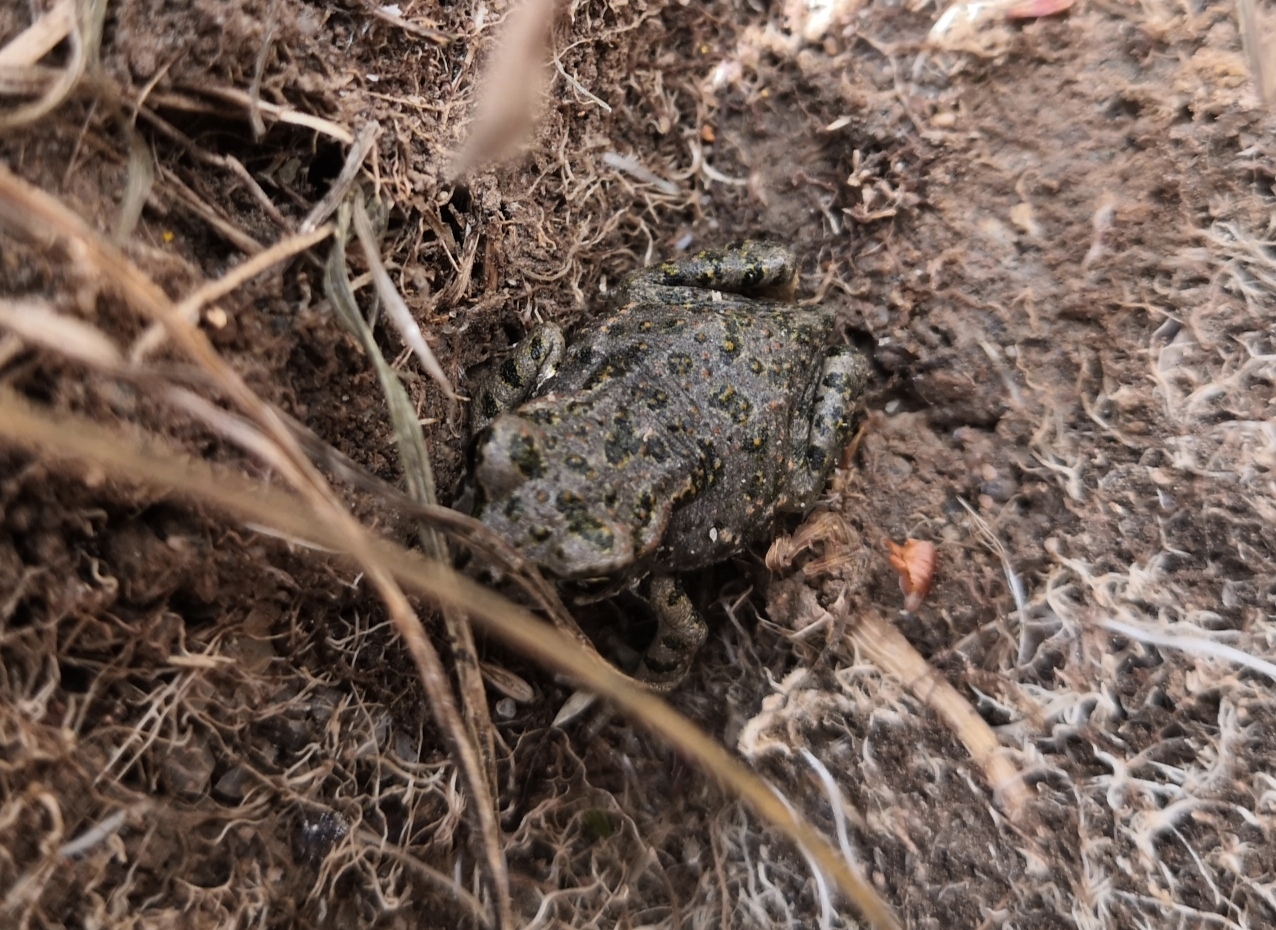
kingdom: Animalia
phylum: Chordata
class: Amphibia
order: Anura
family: Bufonidae
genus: Bufotes
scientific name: Bufotes viridis
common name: European green toad
